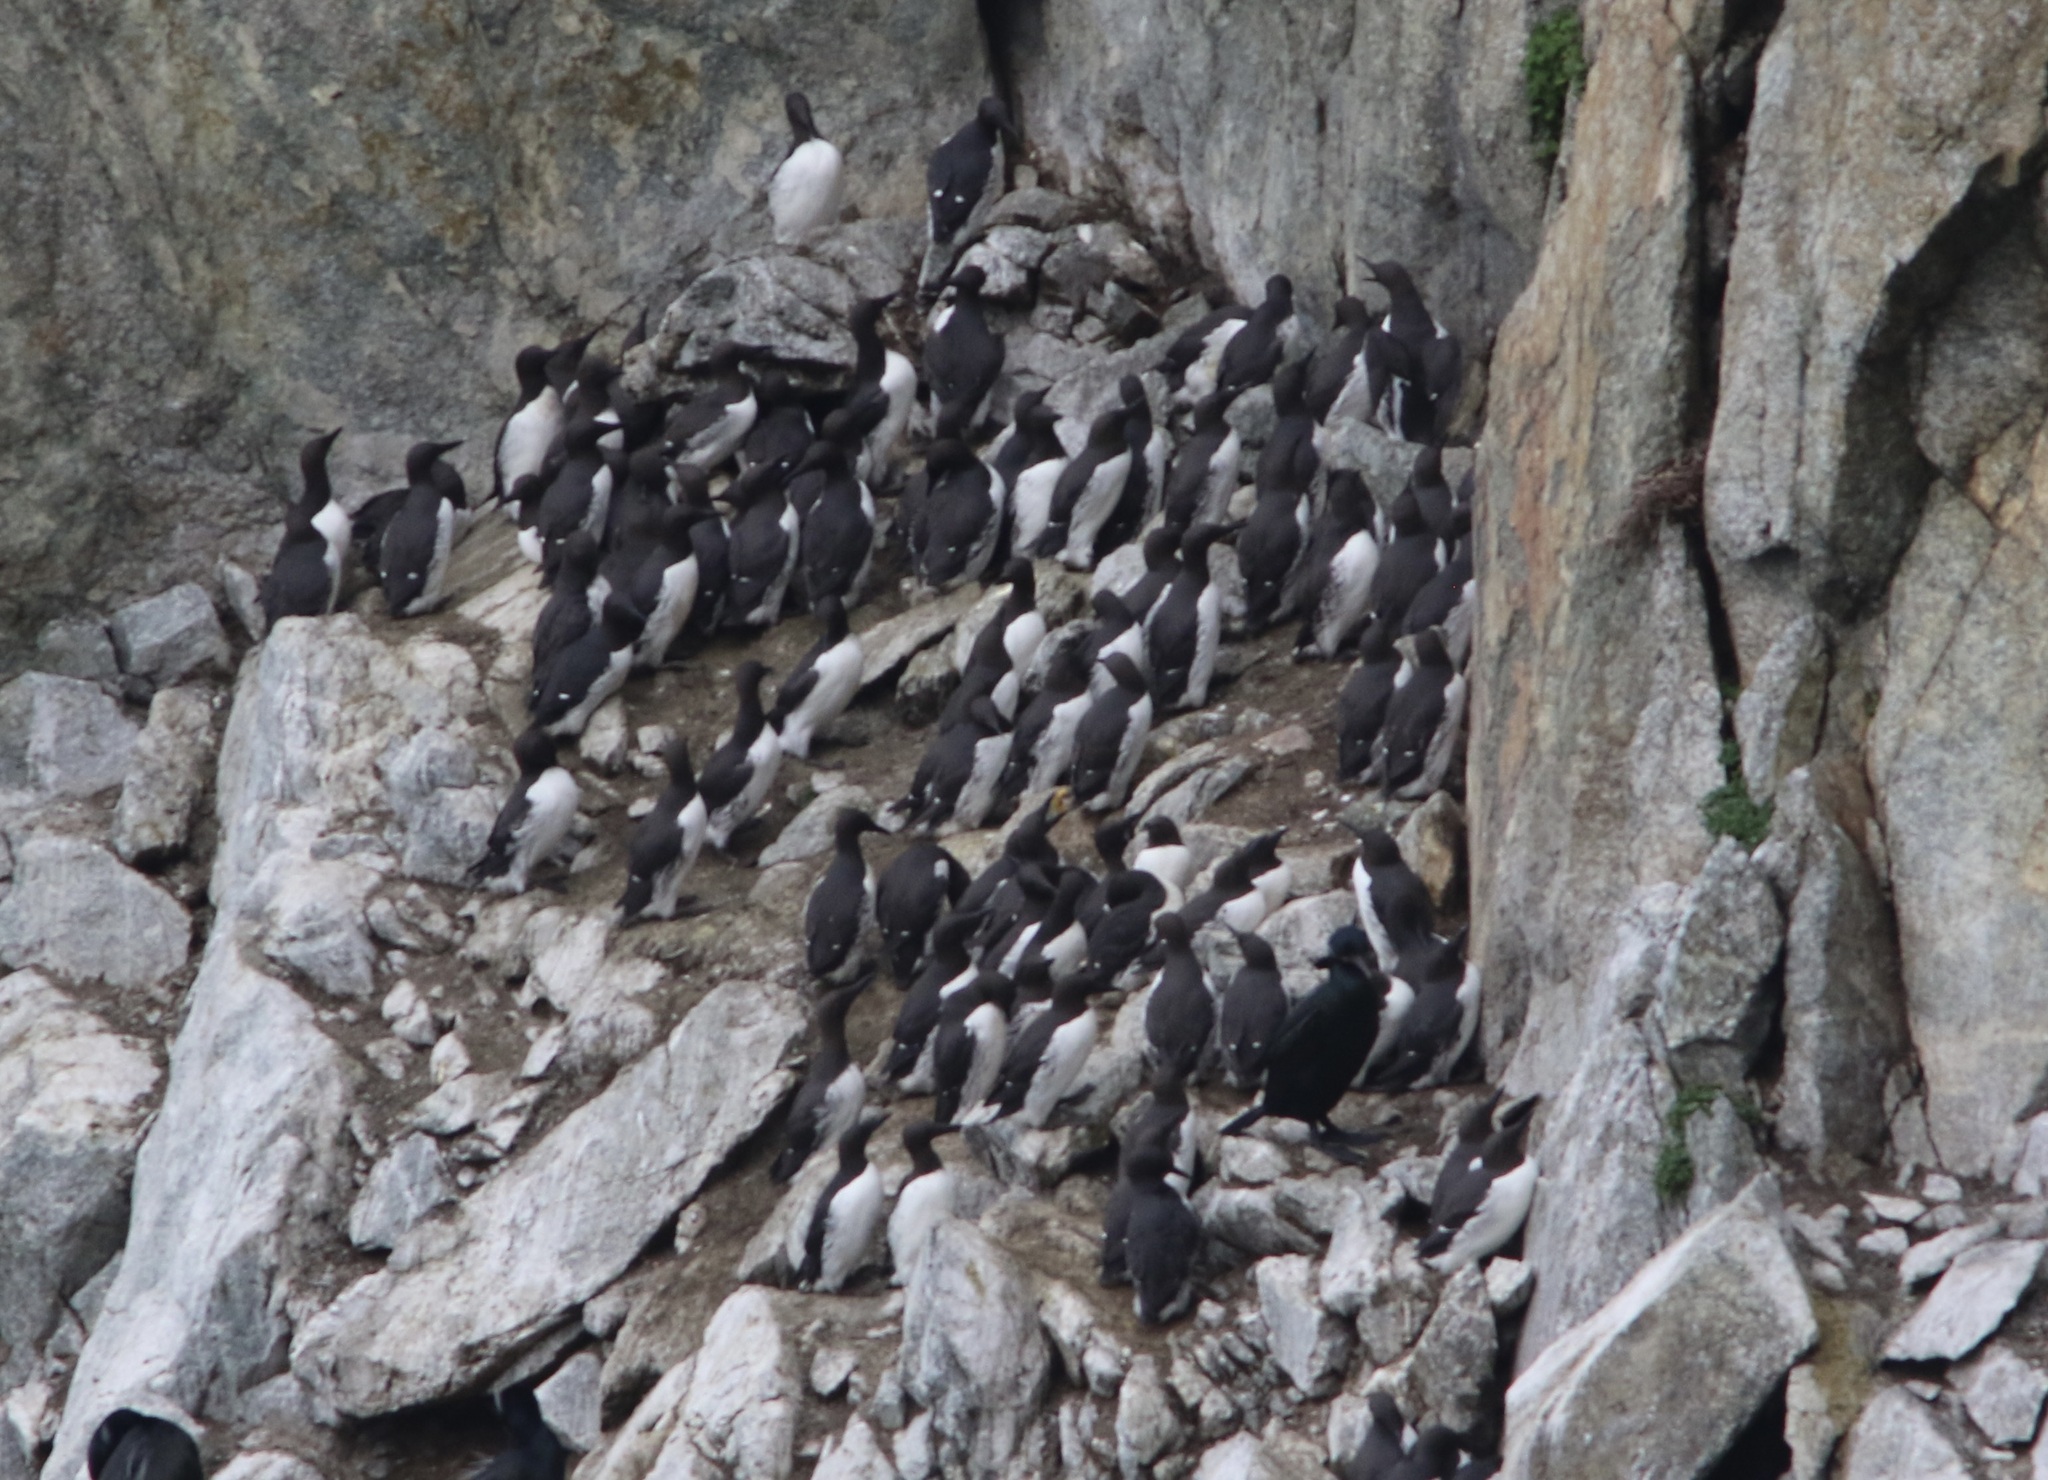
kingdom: Animalia
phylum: Chordata
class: Aves
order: Charadriiformes
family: Alcidae
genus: Uria
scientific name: Uria aalge
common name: Common murre
